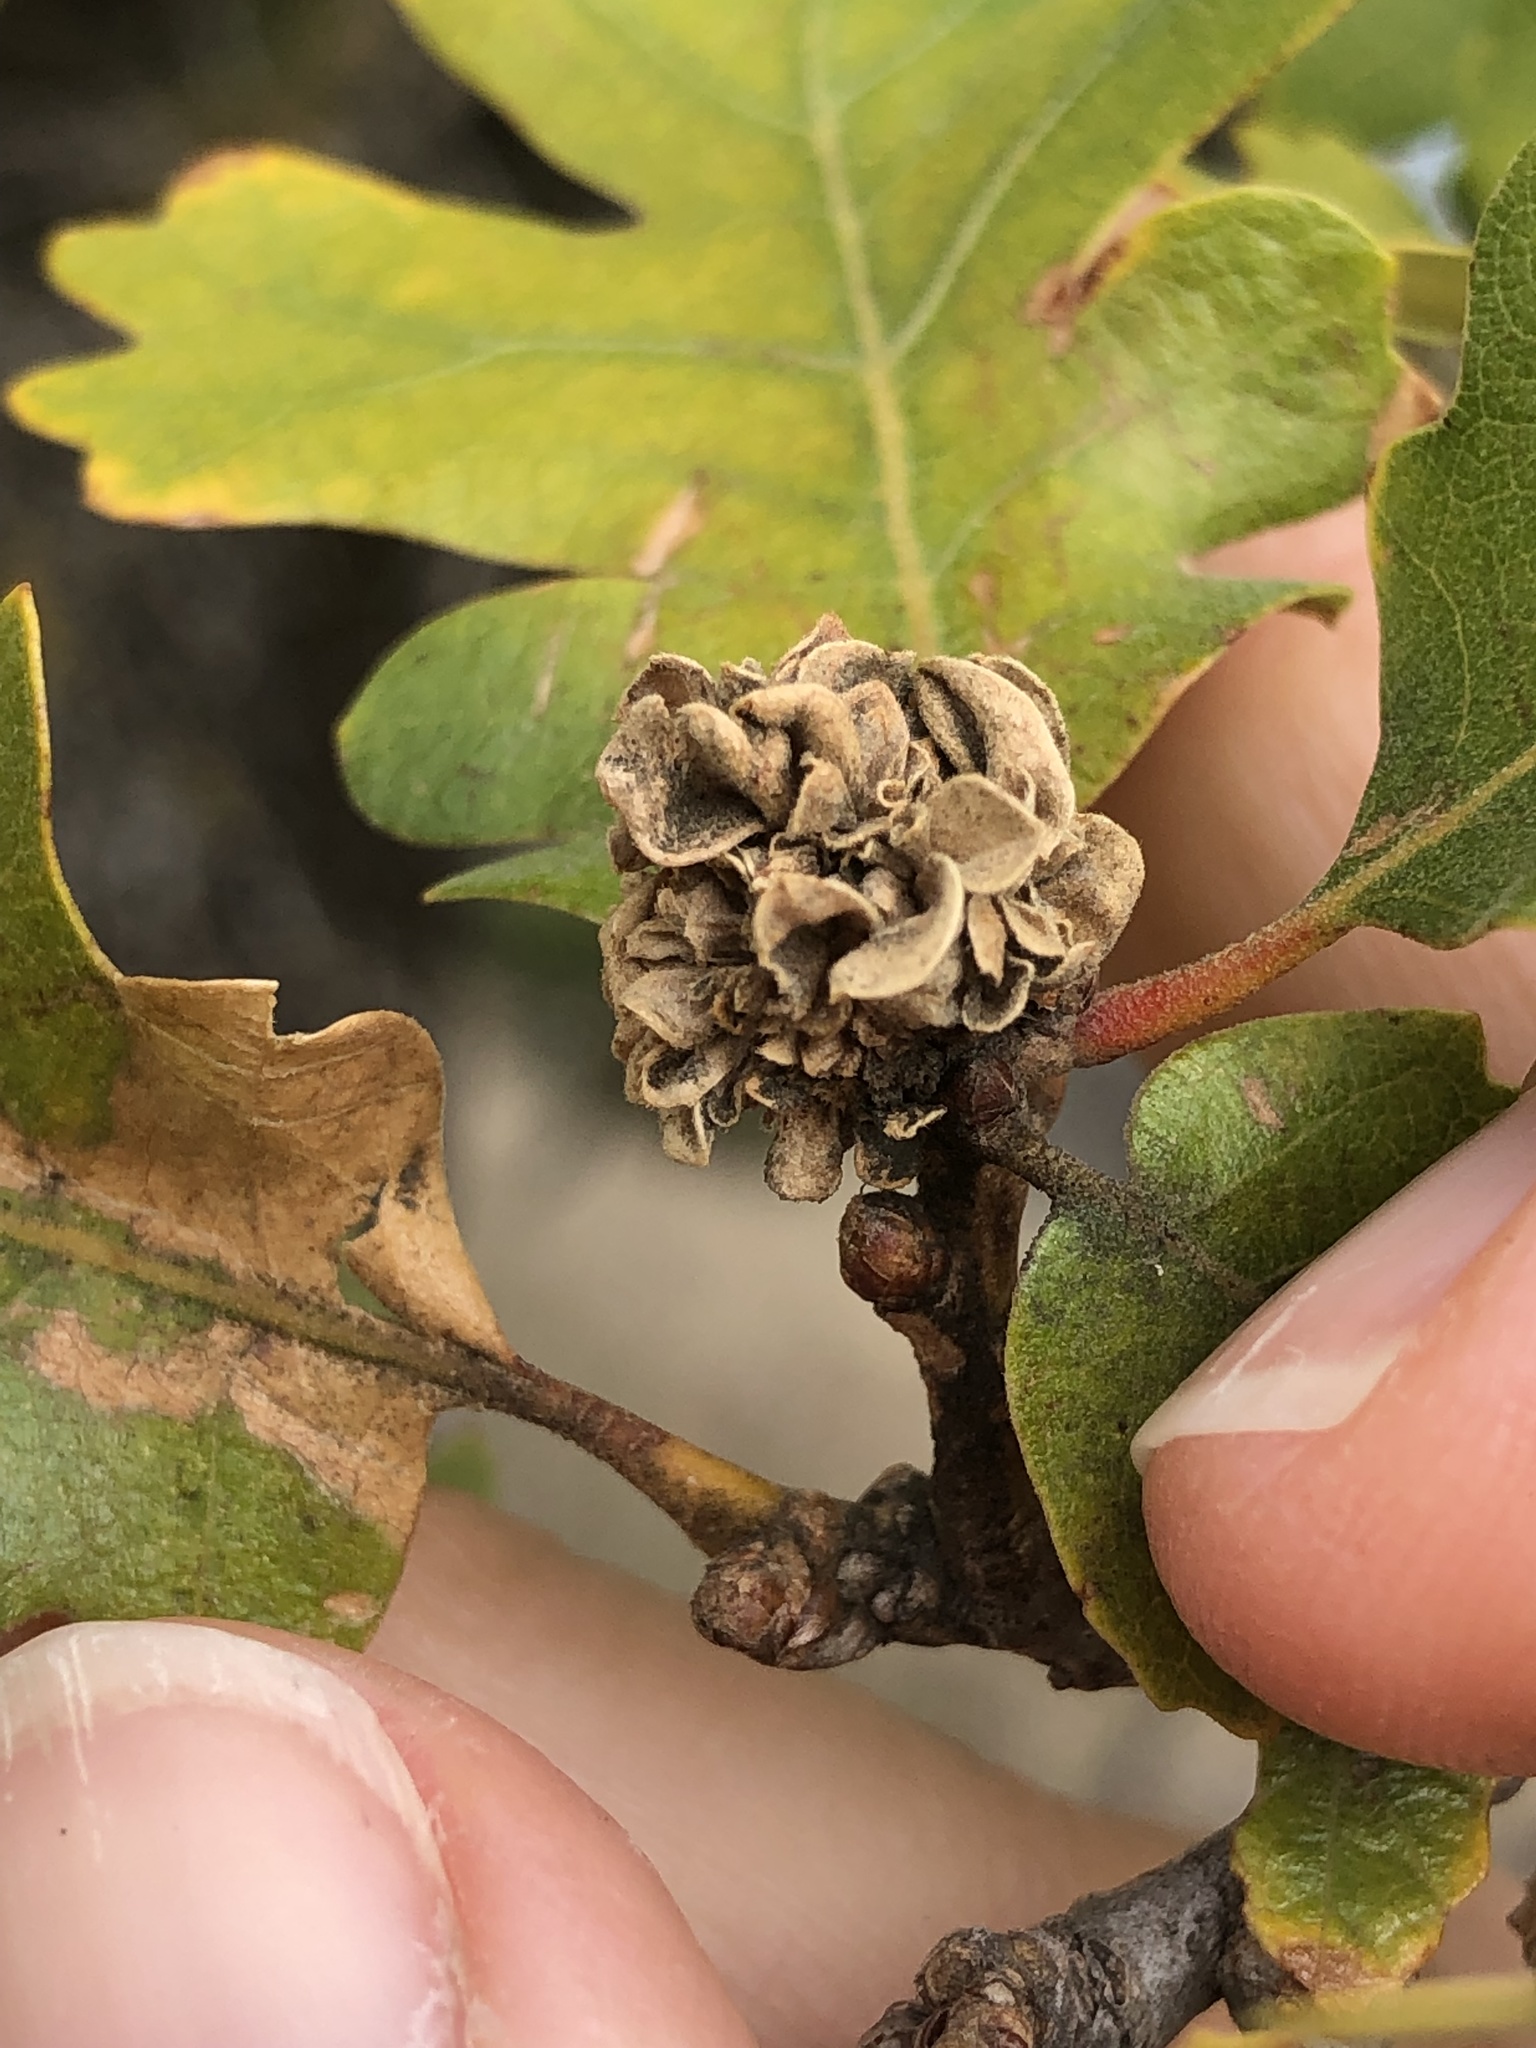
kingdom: Animalia
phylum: Arthropoda
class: Insecta
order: Hymenoptera
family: Cynipidae
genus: Andricus
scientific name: Andricus
